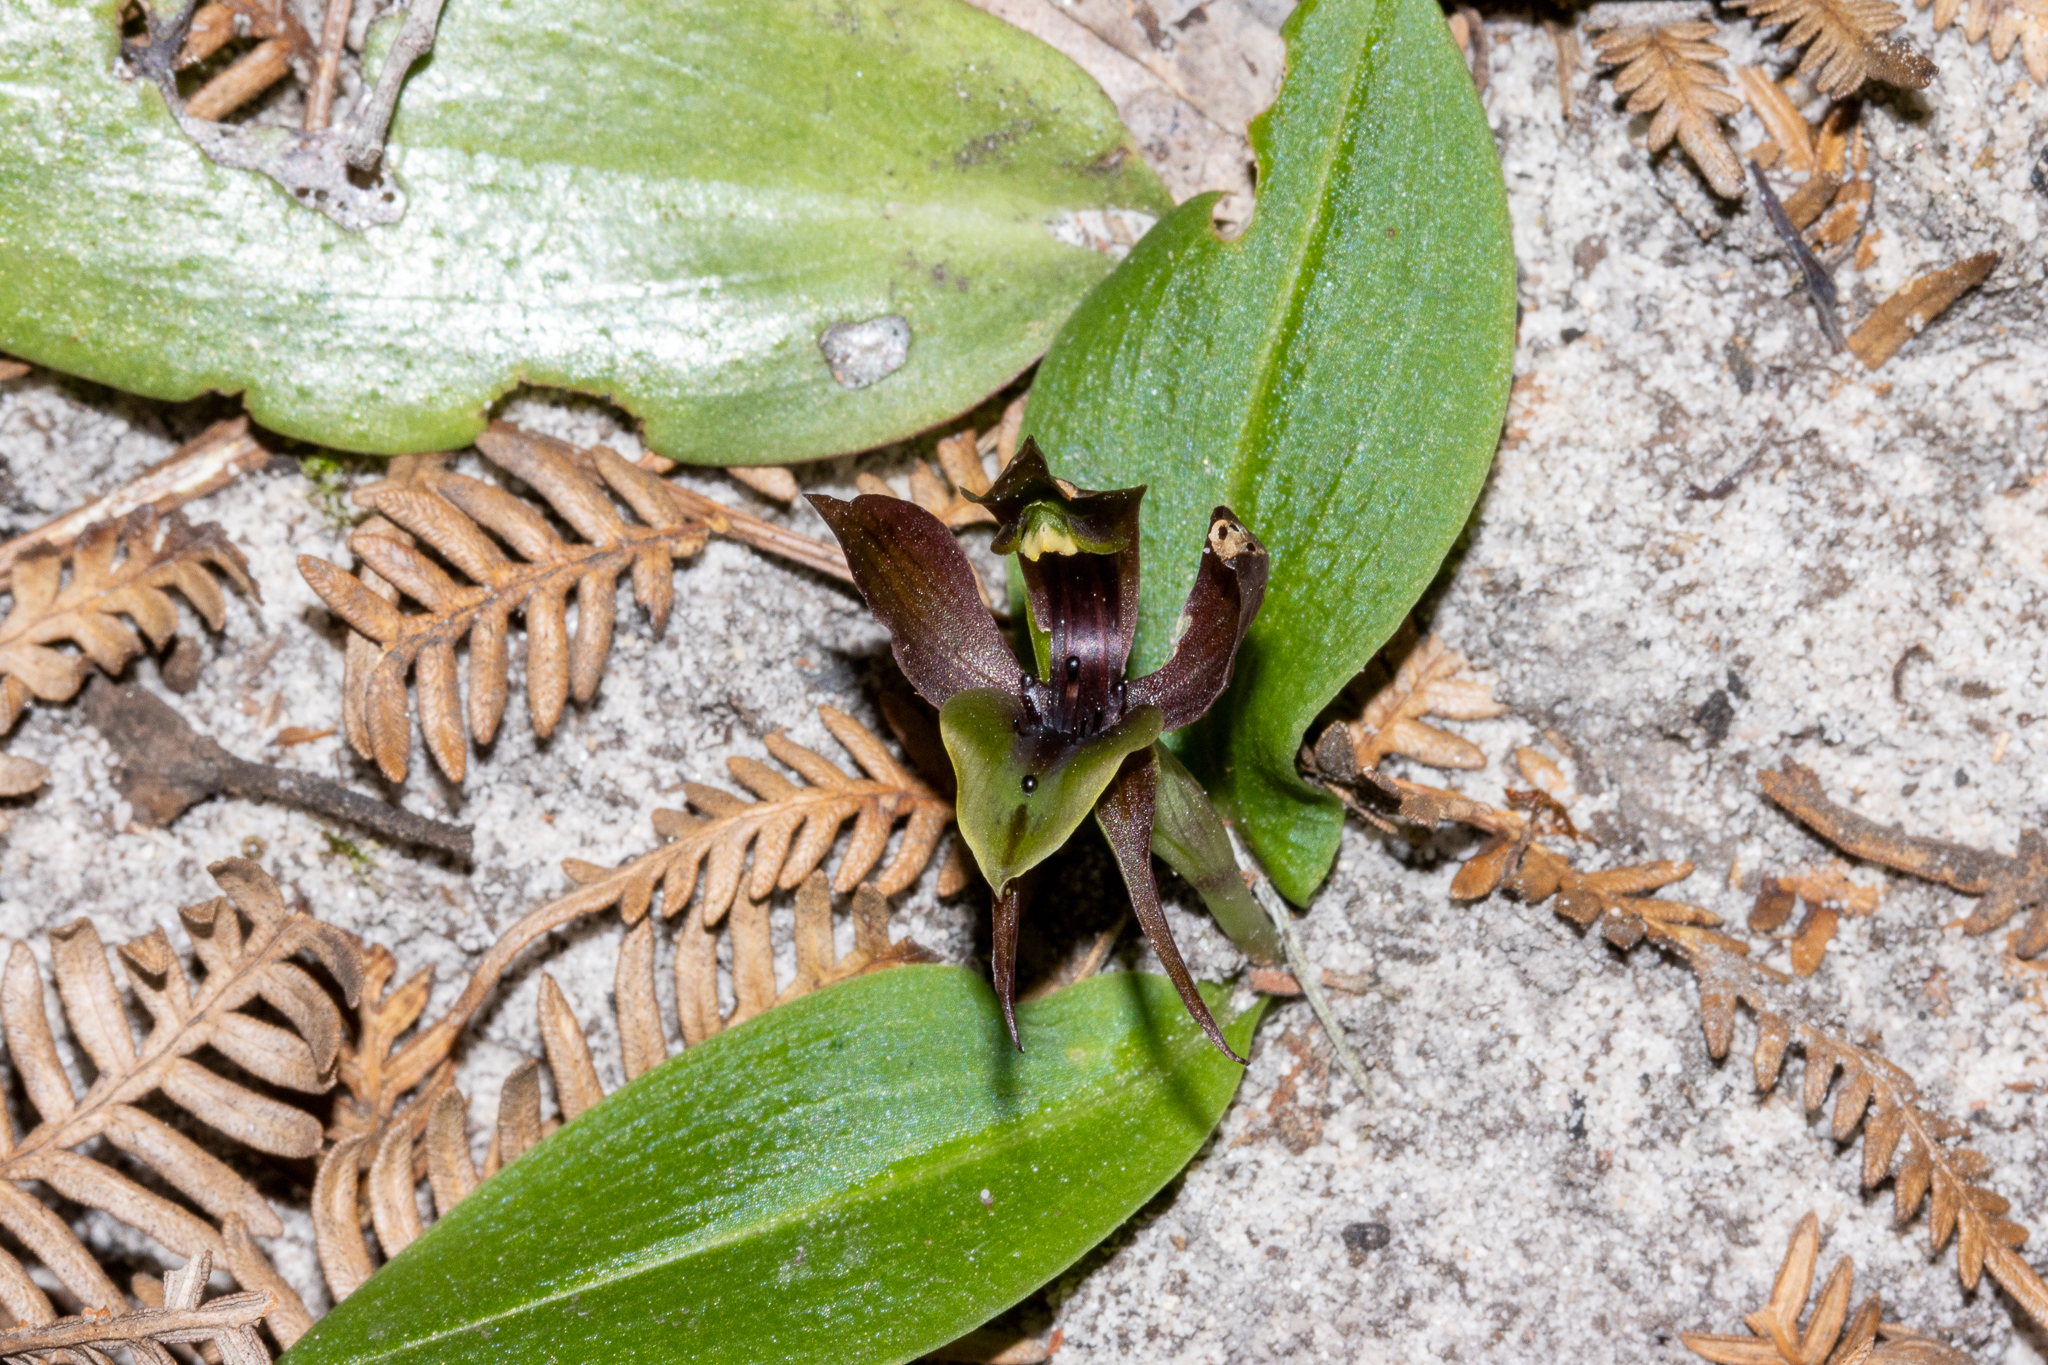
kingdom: Plantae
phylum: Tracheophyta
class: Liliopsida
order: Asparagales
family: Orchidaceae
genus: Chiloglottis
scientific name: Chiloglottis valida
